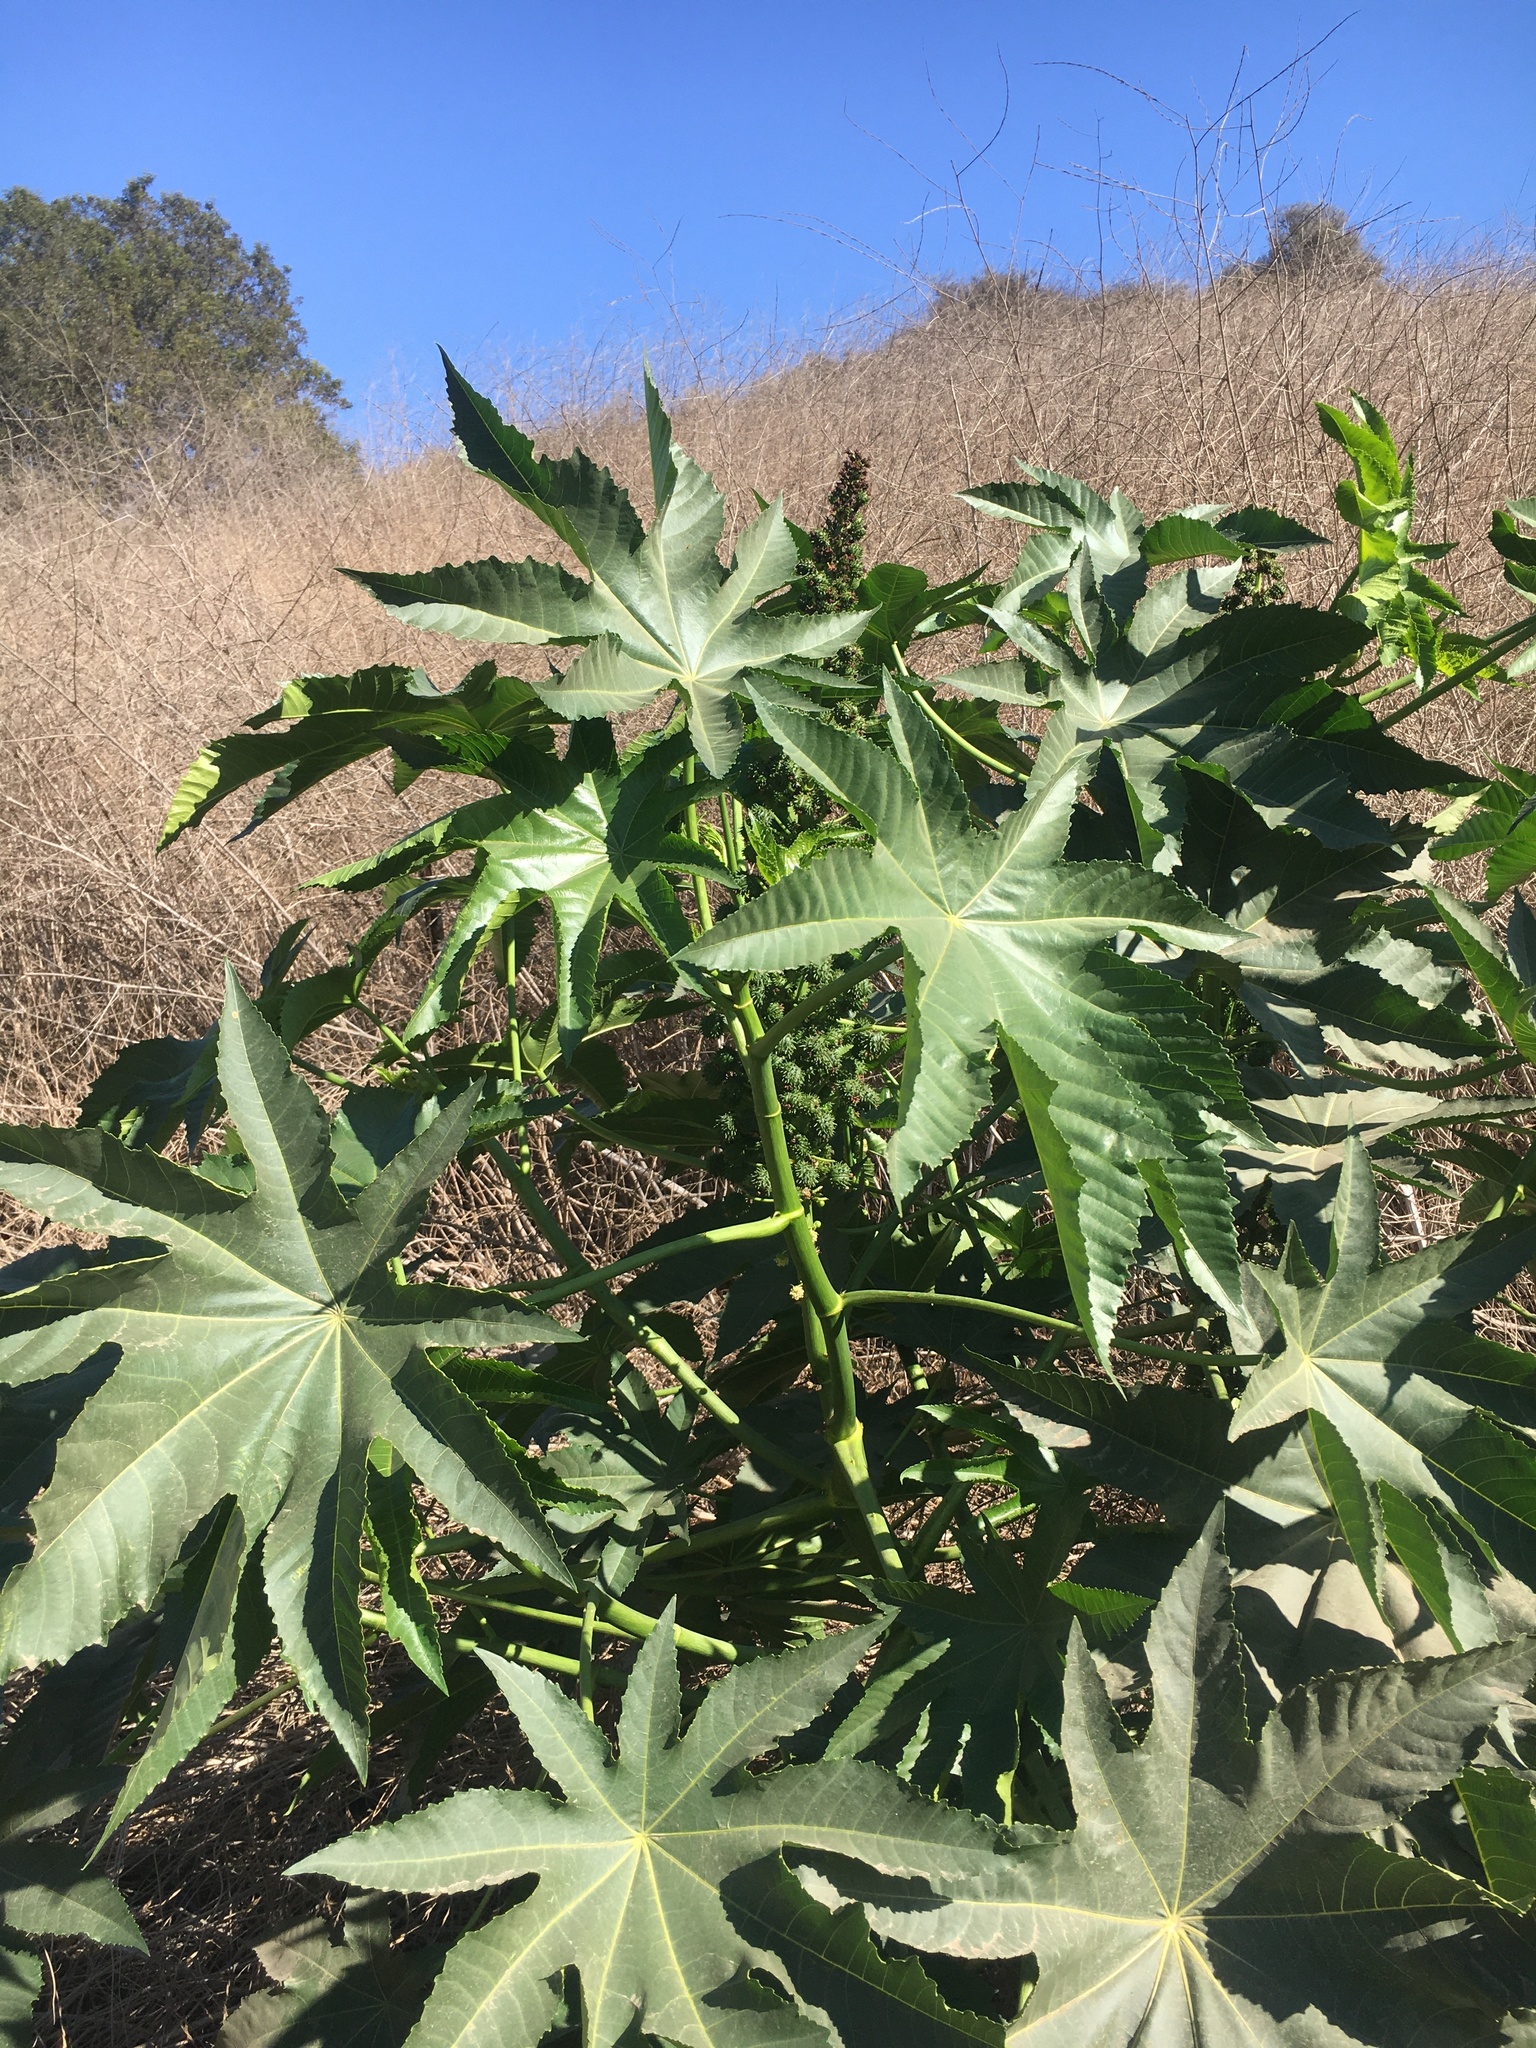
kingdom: Plantae
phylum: Tracheophyta
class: Magnoliopsida
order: Malpighiales
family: Euphorbiaceae
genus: Ricinus
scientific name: Ricinus communis
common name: Castor-oil-plant
